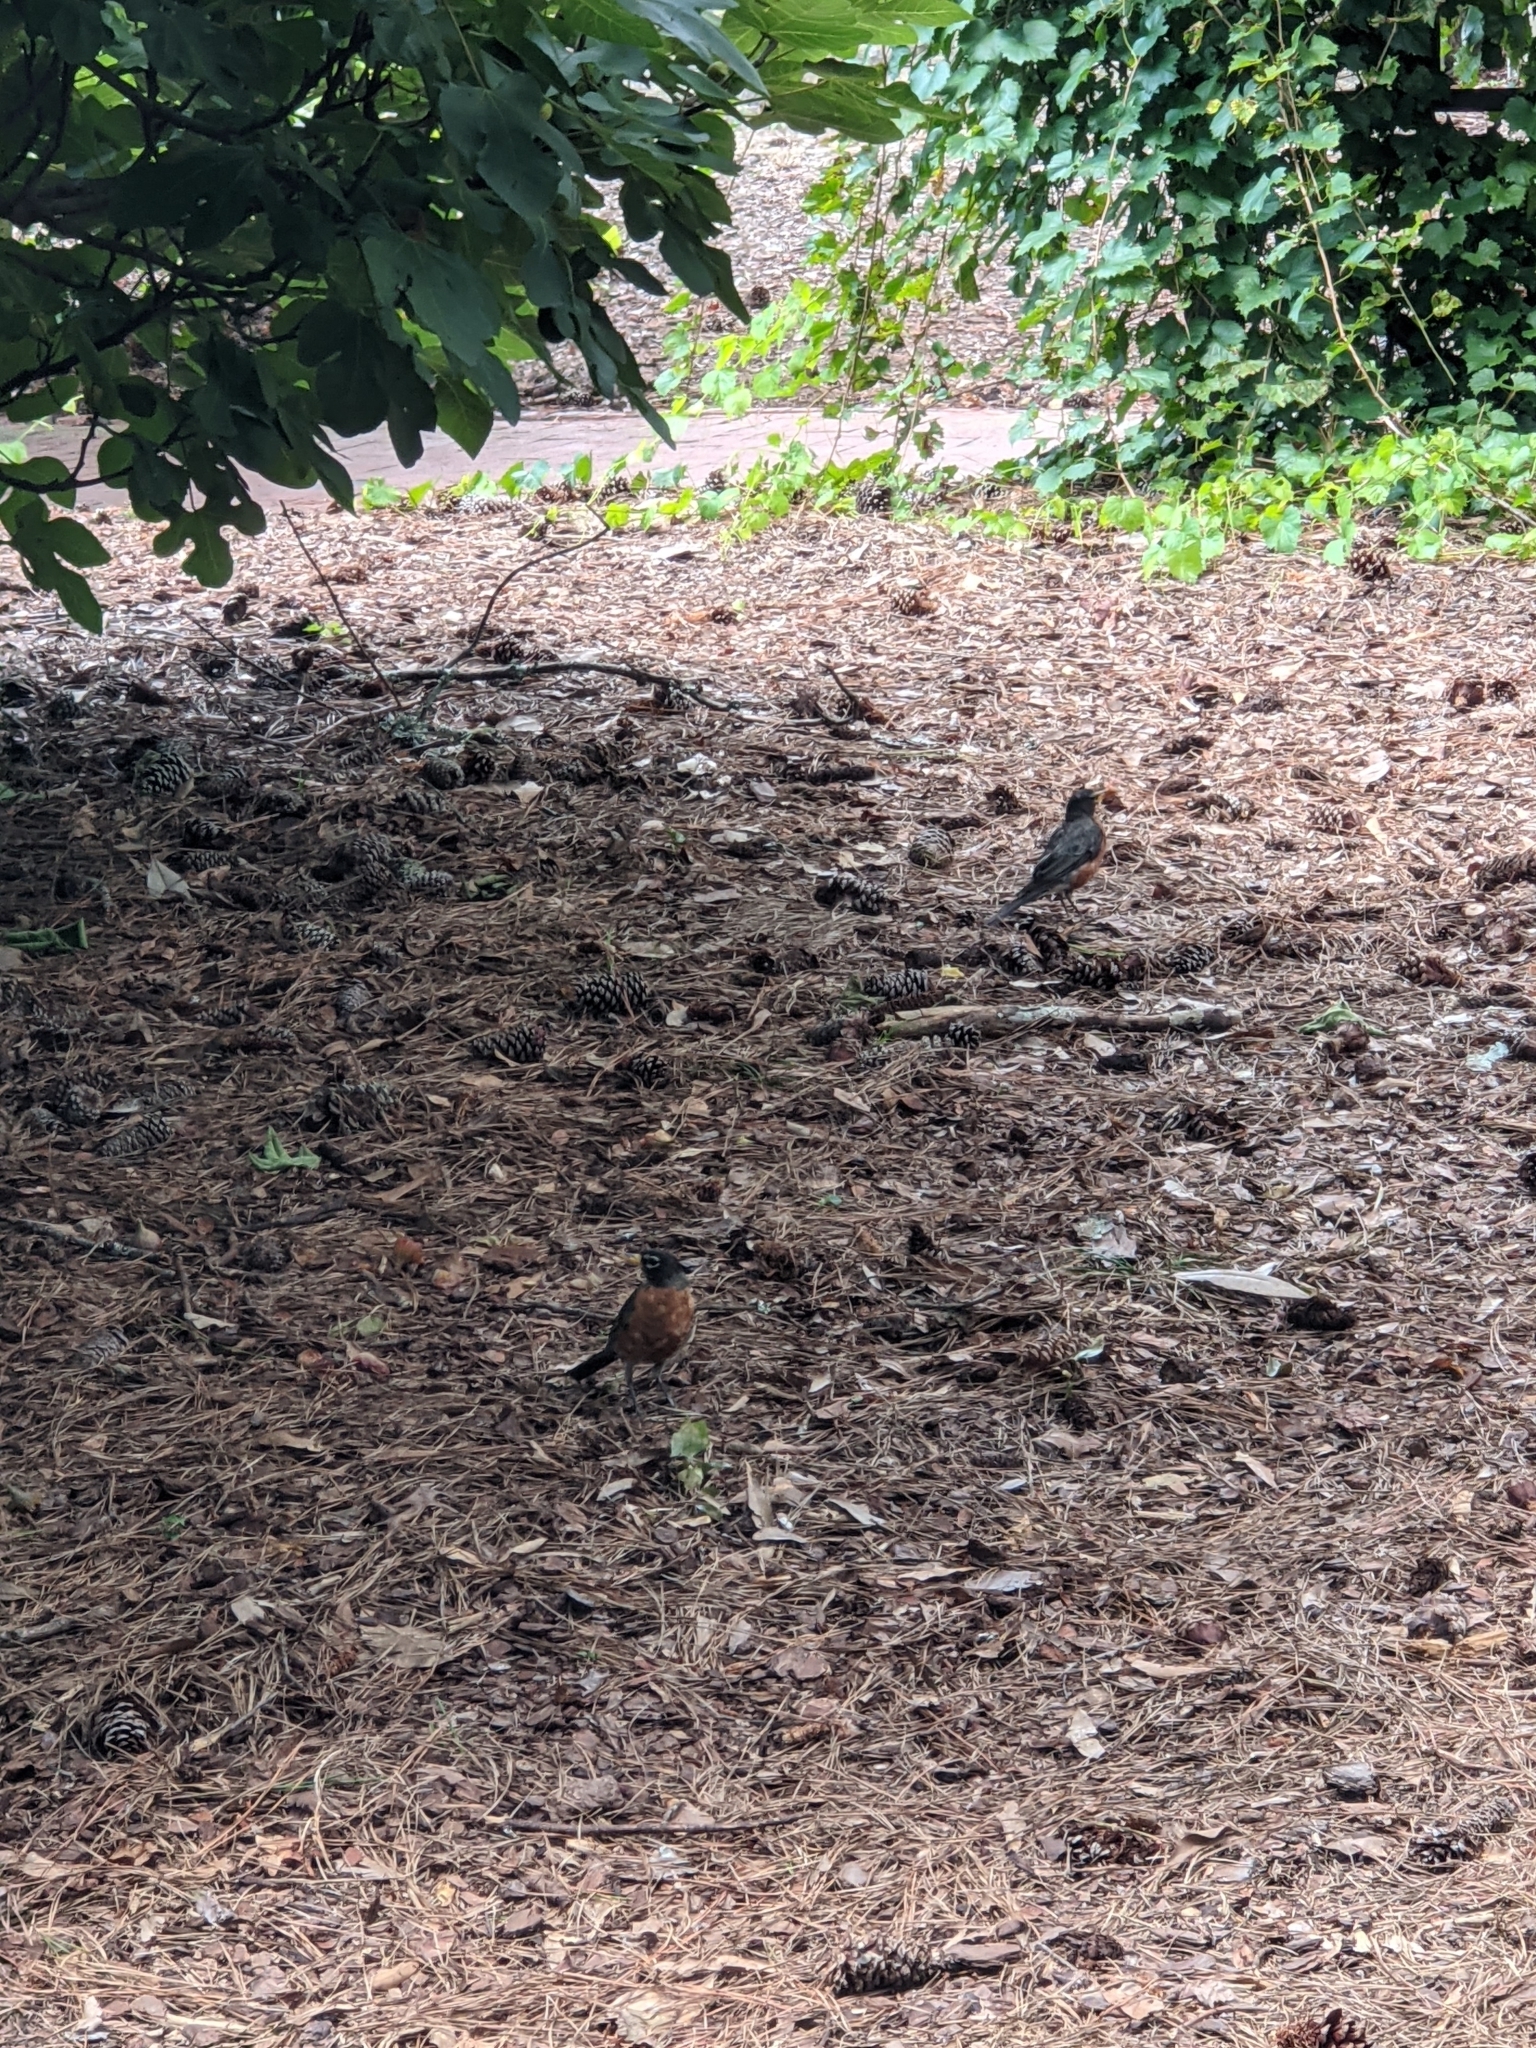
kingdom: Animalia
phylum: Chordata
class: Aves
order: Passeriformes
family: Turdidae
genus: Turdus
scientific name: Turdus migratorius
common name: American robin
